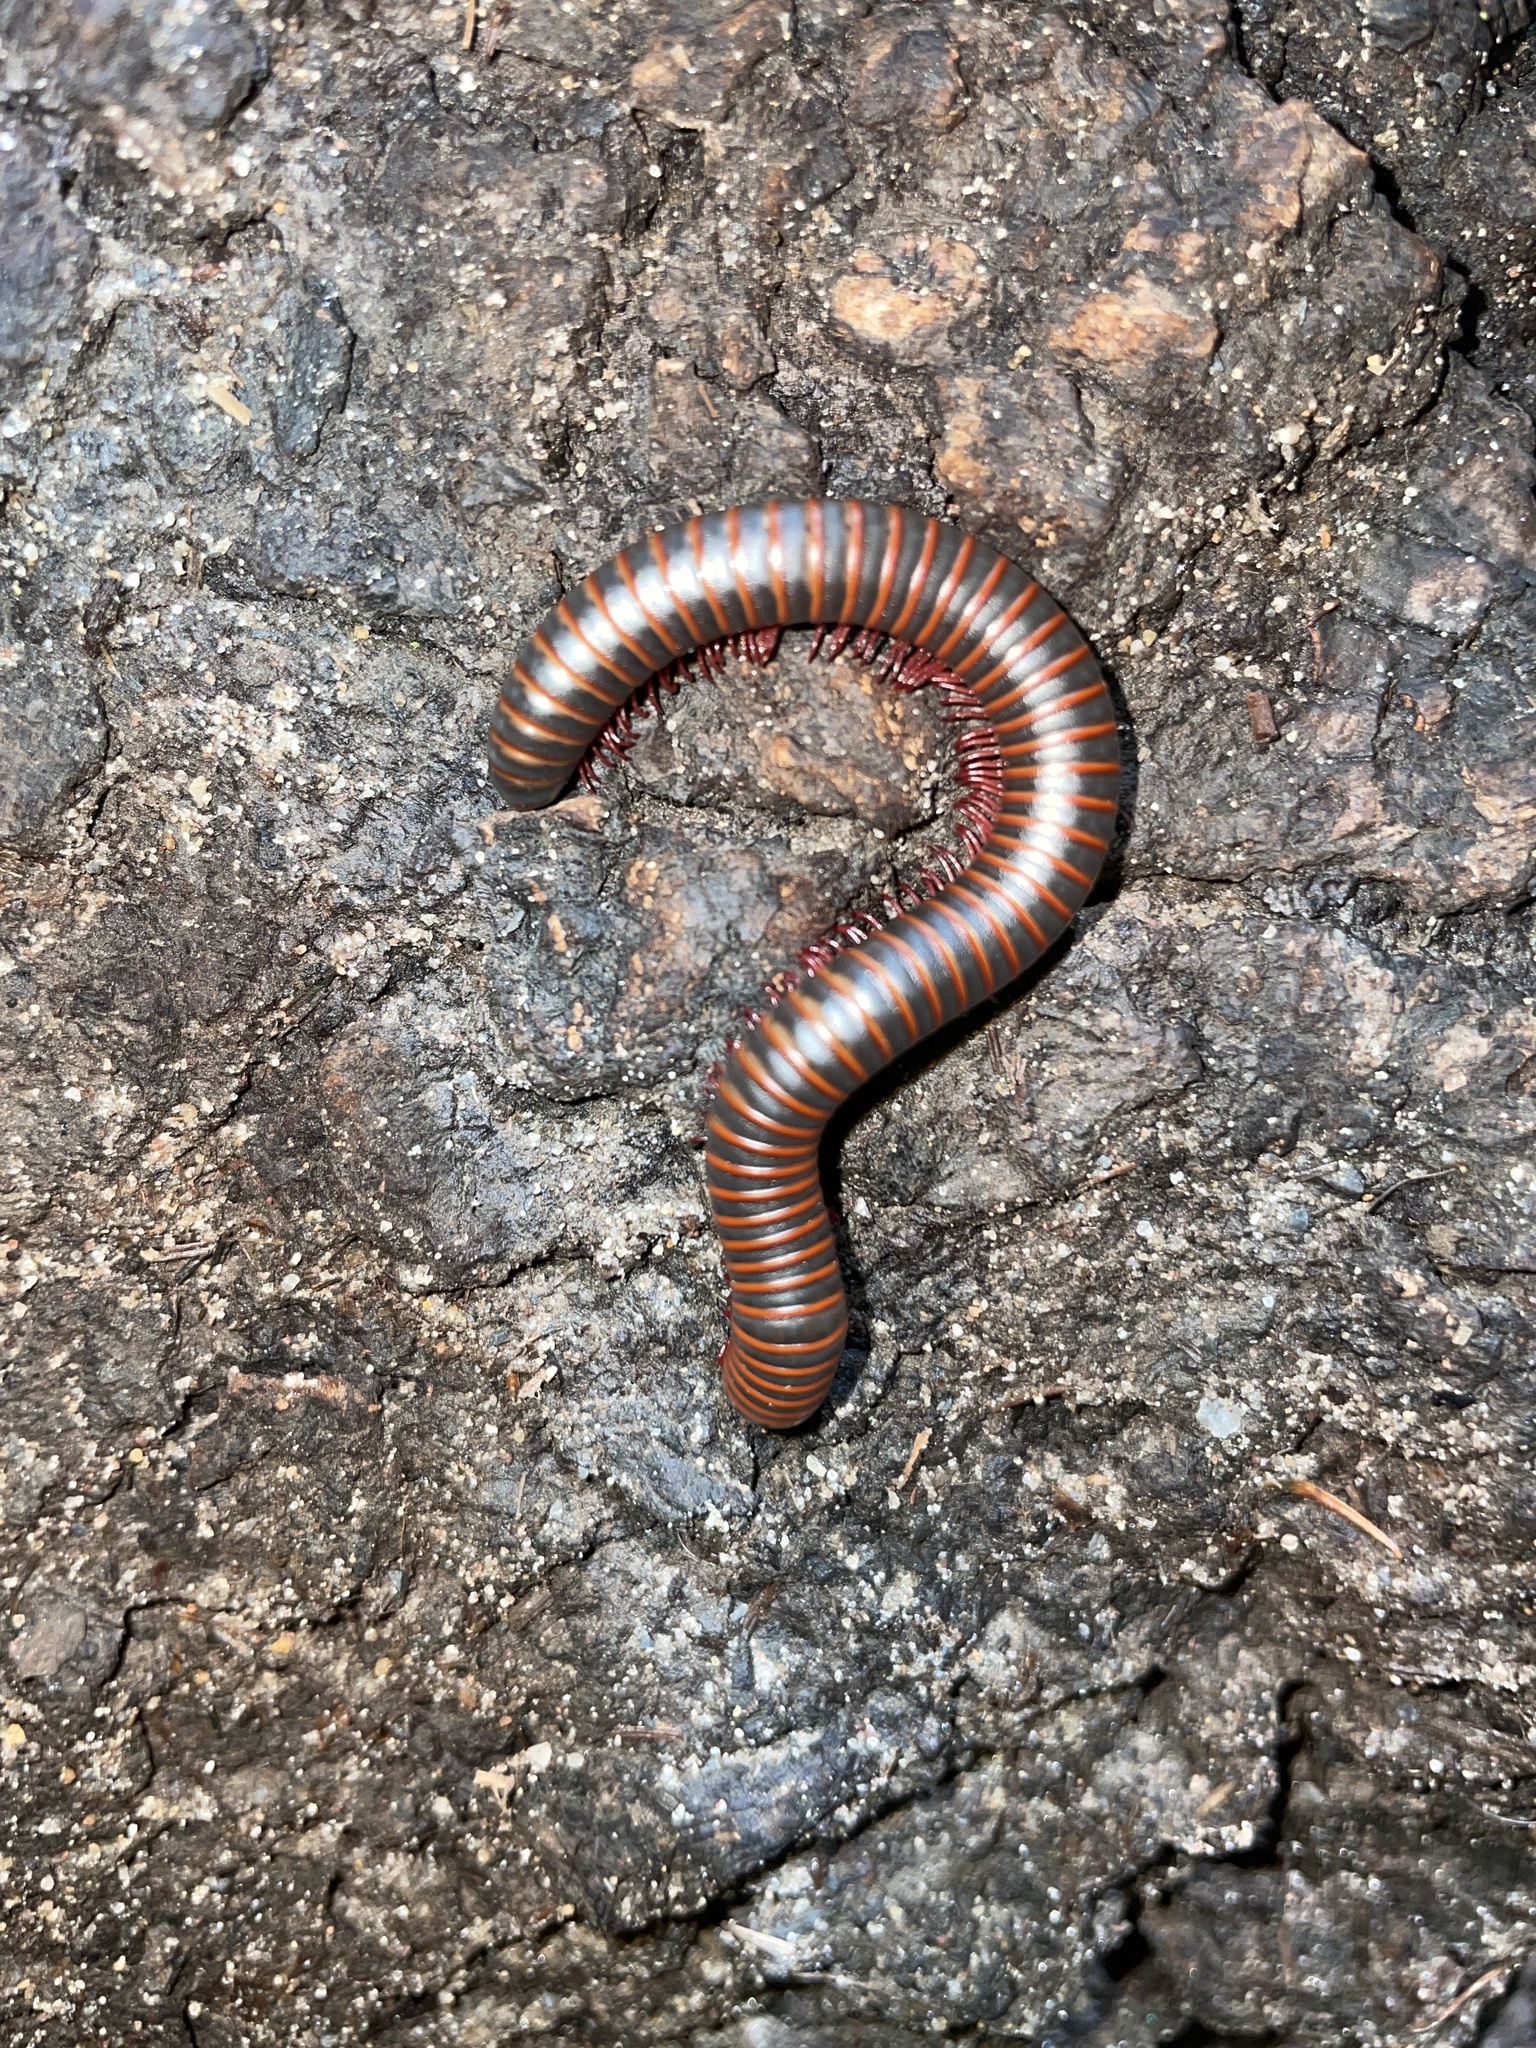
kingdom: Animalia
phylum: Arthropoda
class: Diplopoda
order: Spirobolida
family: Spirobolidae
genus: Narceus
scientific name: Narceus americanus
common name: American giant millipede
